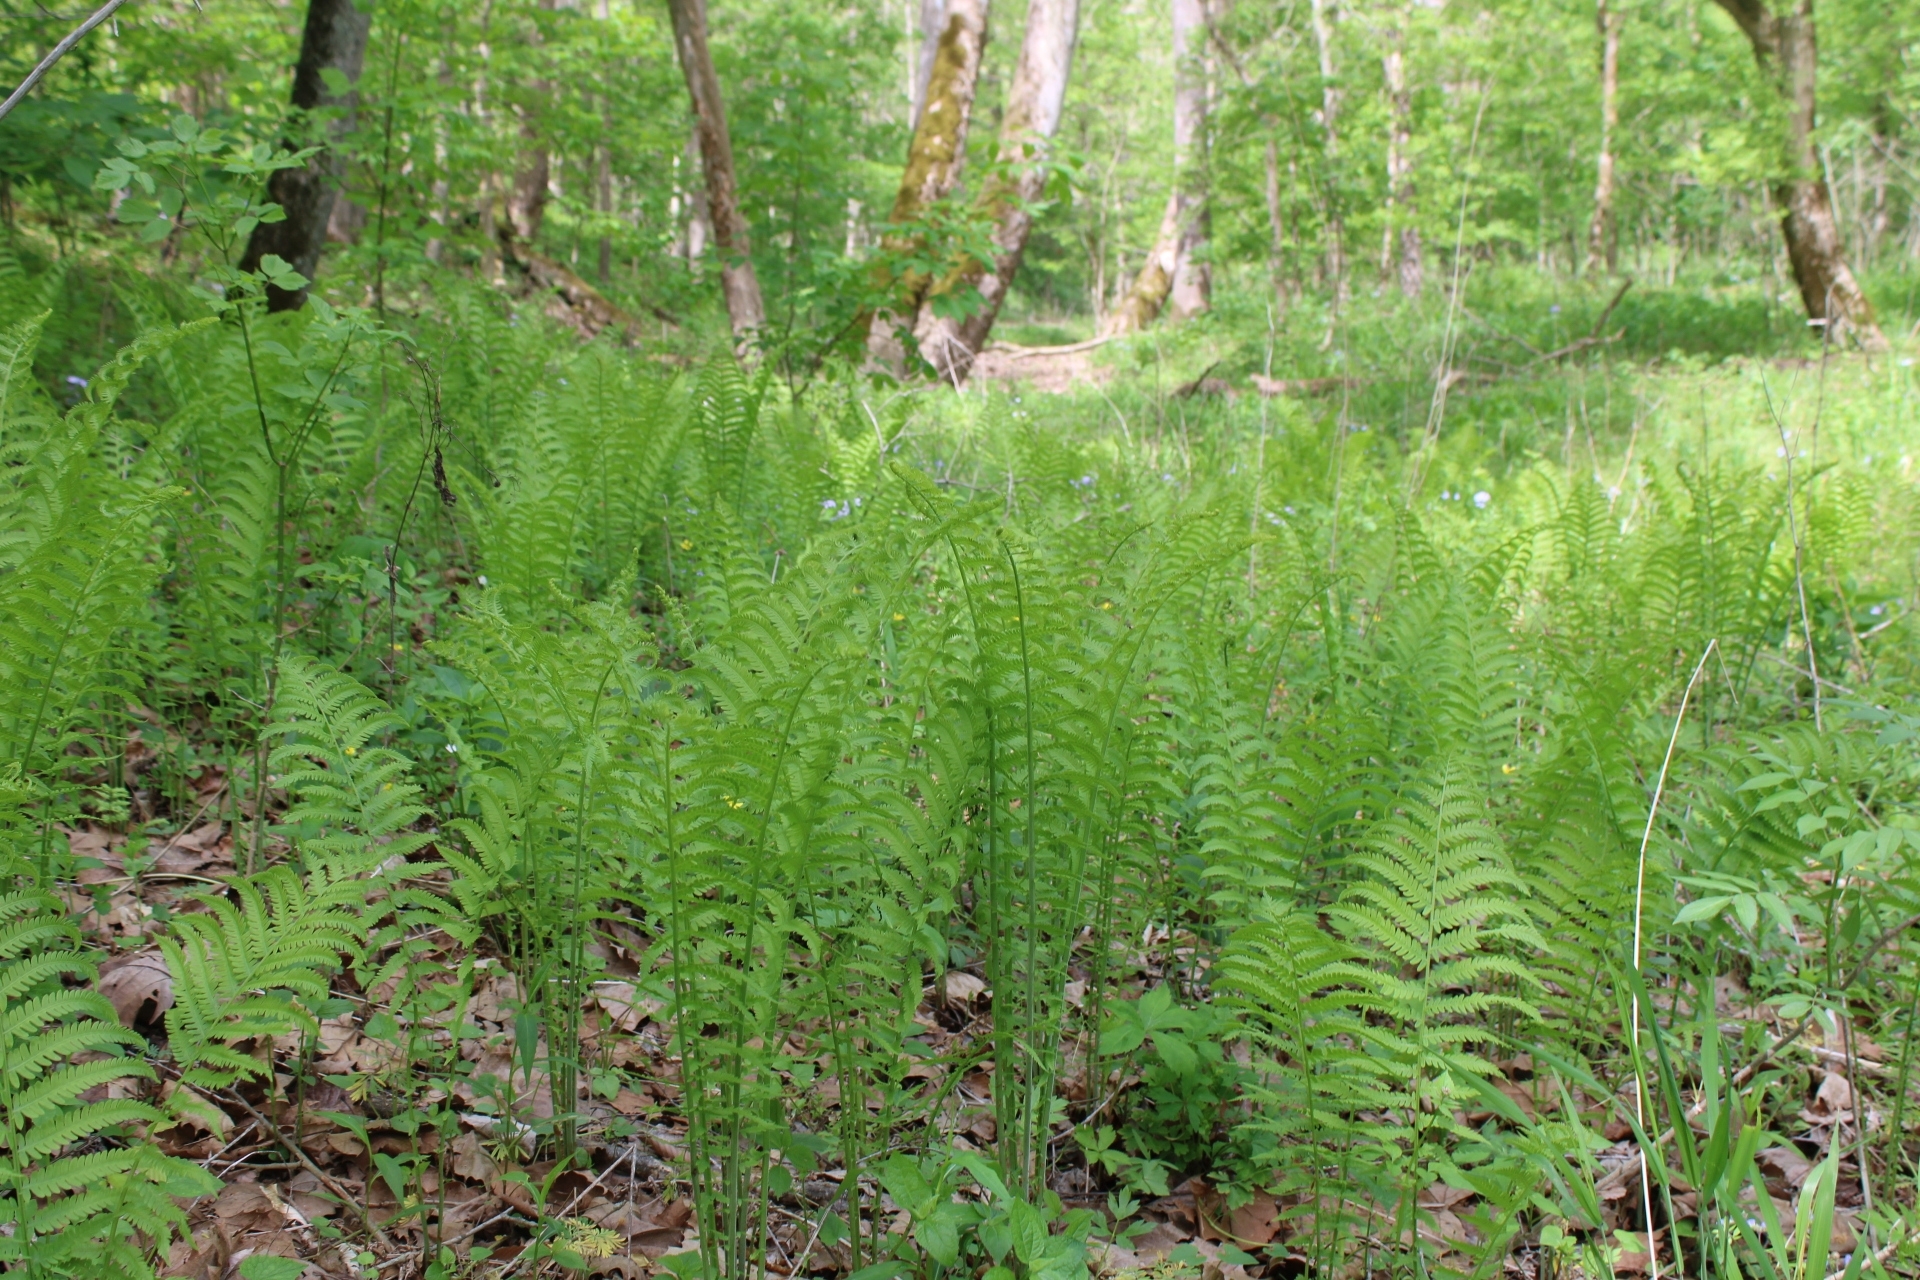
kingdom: Plantae
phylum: Tracheophyta
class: Polypodiopsida
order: Polypodiales
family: Onocleaceae
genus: Matteuccia
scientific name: Matteuccia struthiopteris
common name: Ostrich fern
